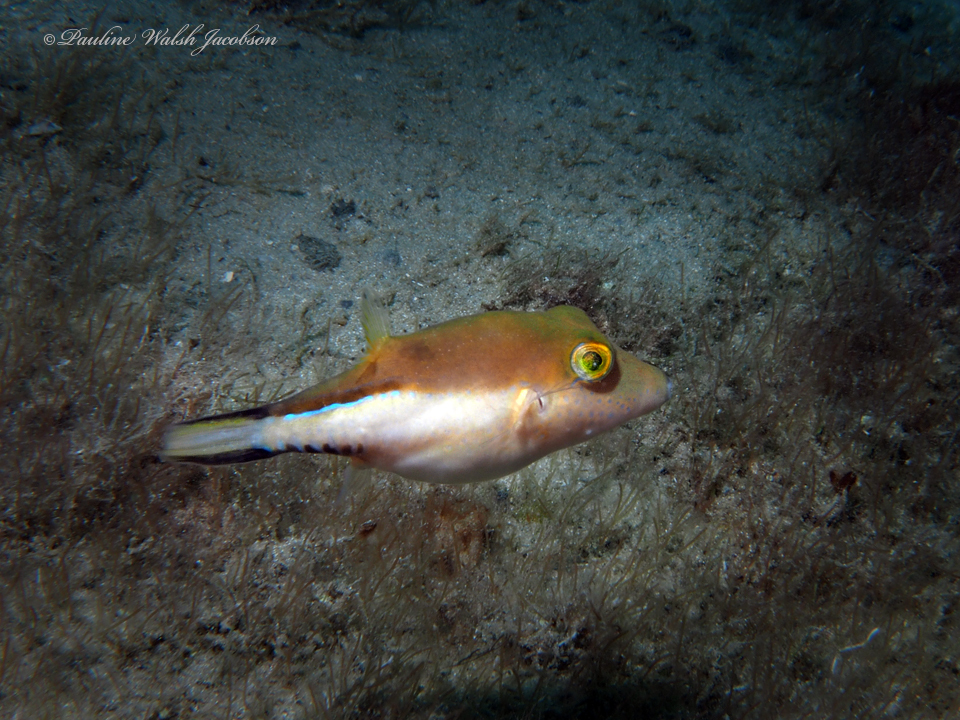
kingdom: Animalia
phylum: Chordata
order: Tetraodontiformes
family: Tetraodontidae
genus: Canthigaster
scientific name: Canthigaster rostrata
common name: Caribbean sharpnose-puffer
